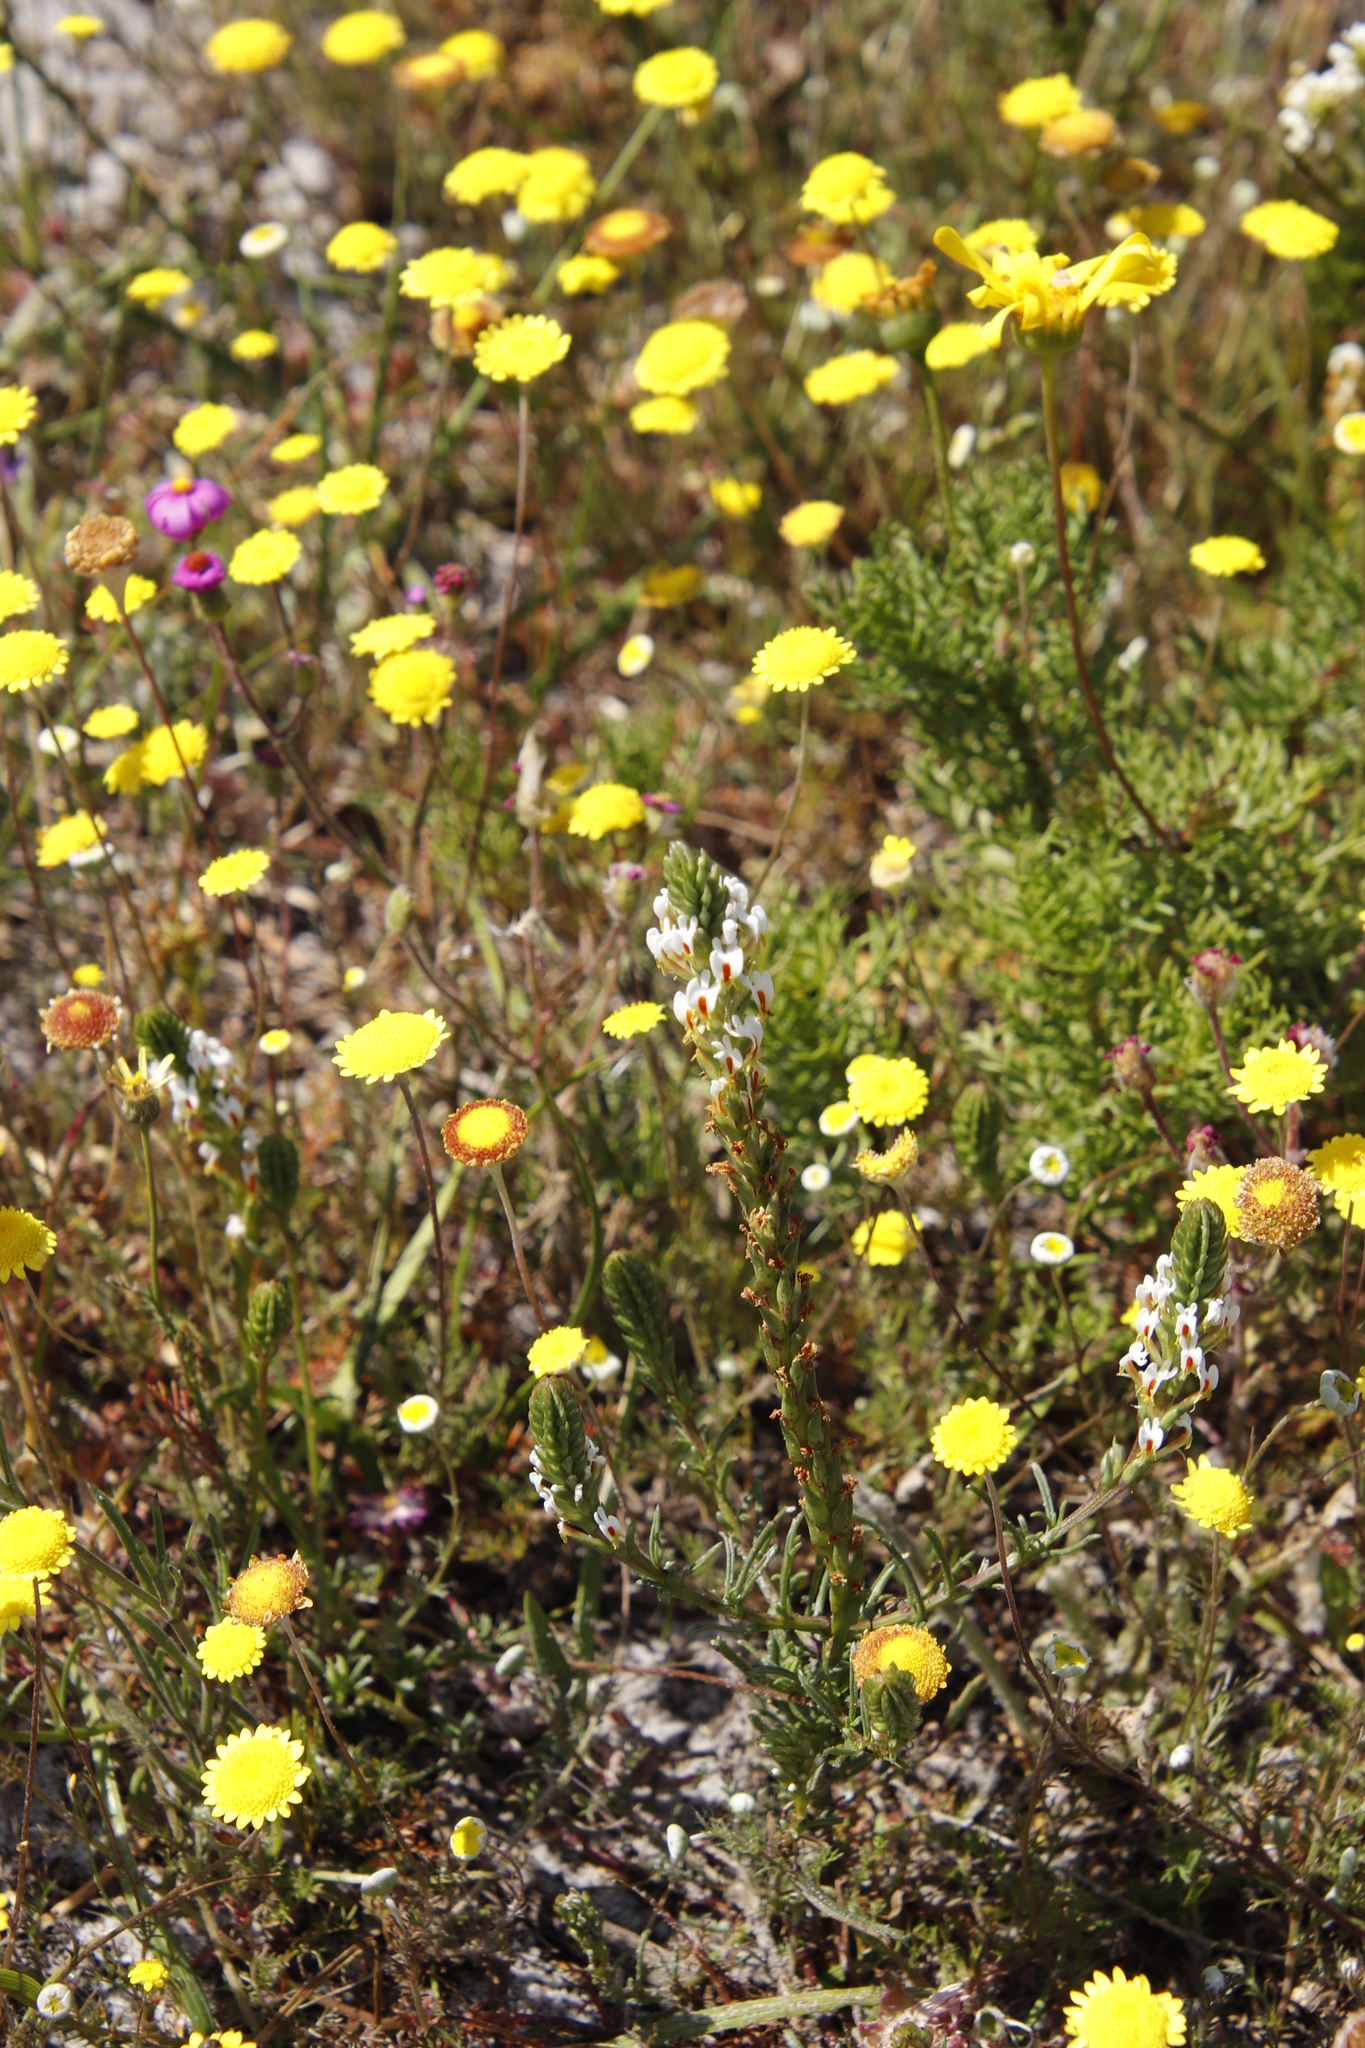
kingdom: Plantae
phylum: Tracheophyta
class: Magnoliopsida
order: Lamiales
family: Scrophulariaceae
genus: Hebenstretia
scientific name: Hebenstretia repens
